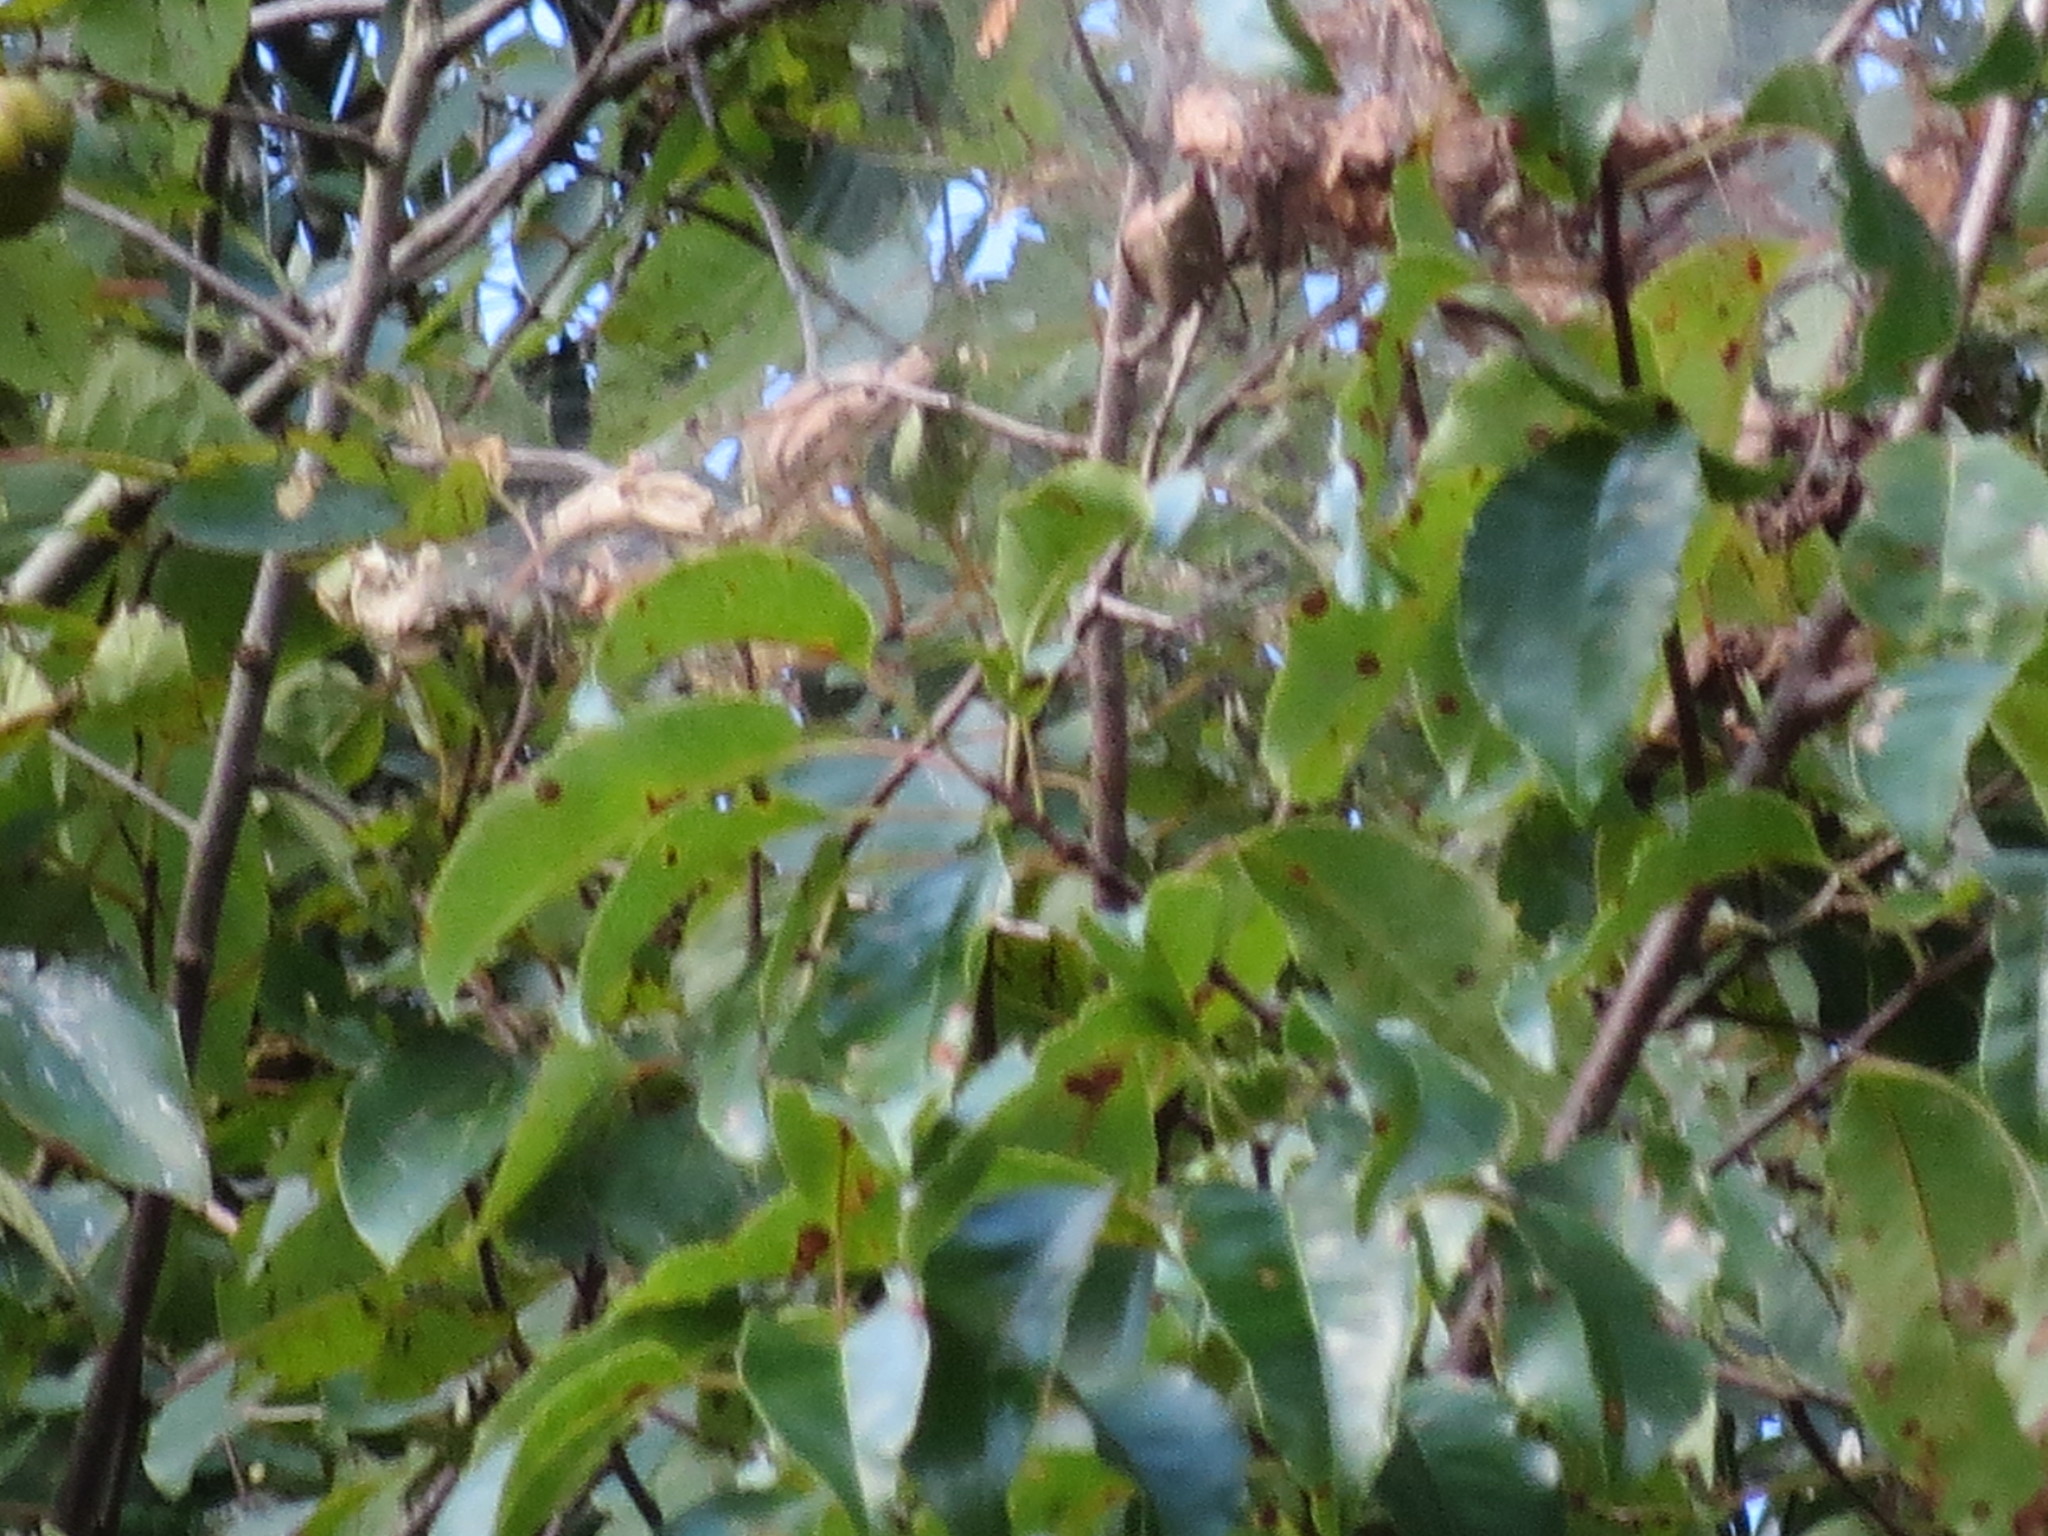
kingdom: Animalia
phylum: Arthropoda
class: Insecta
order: Lepidoptera
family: Erebidae
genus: Hyphantria
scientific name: Hyphantria cunea
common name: American white moth
